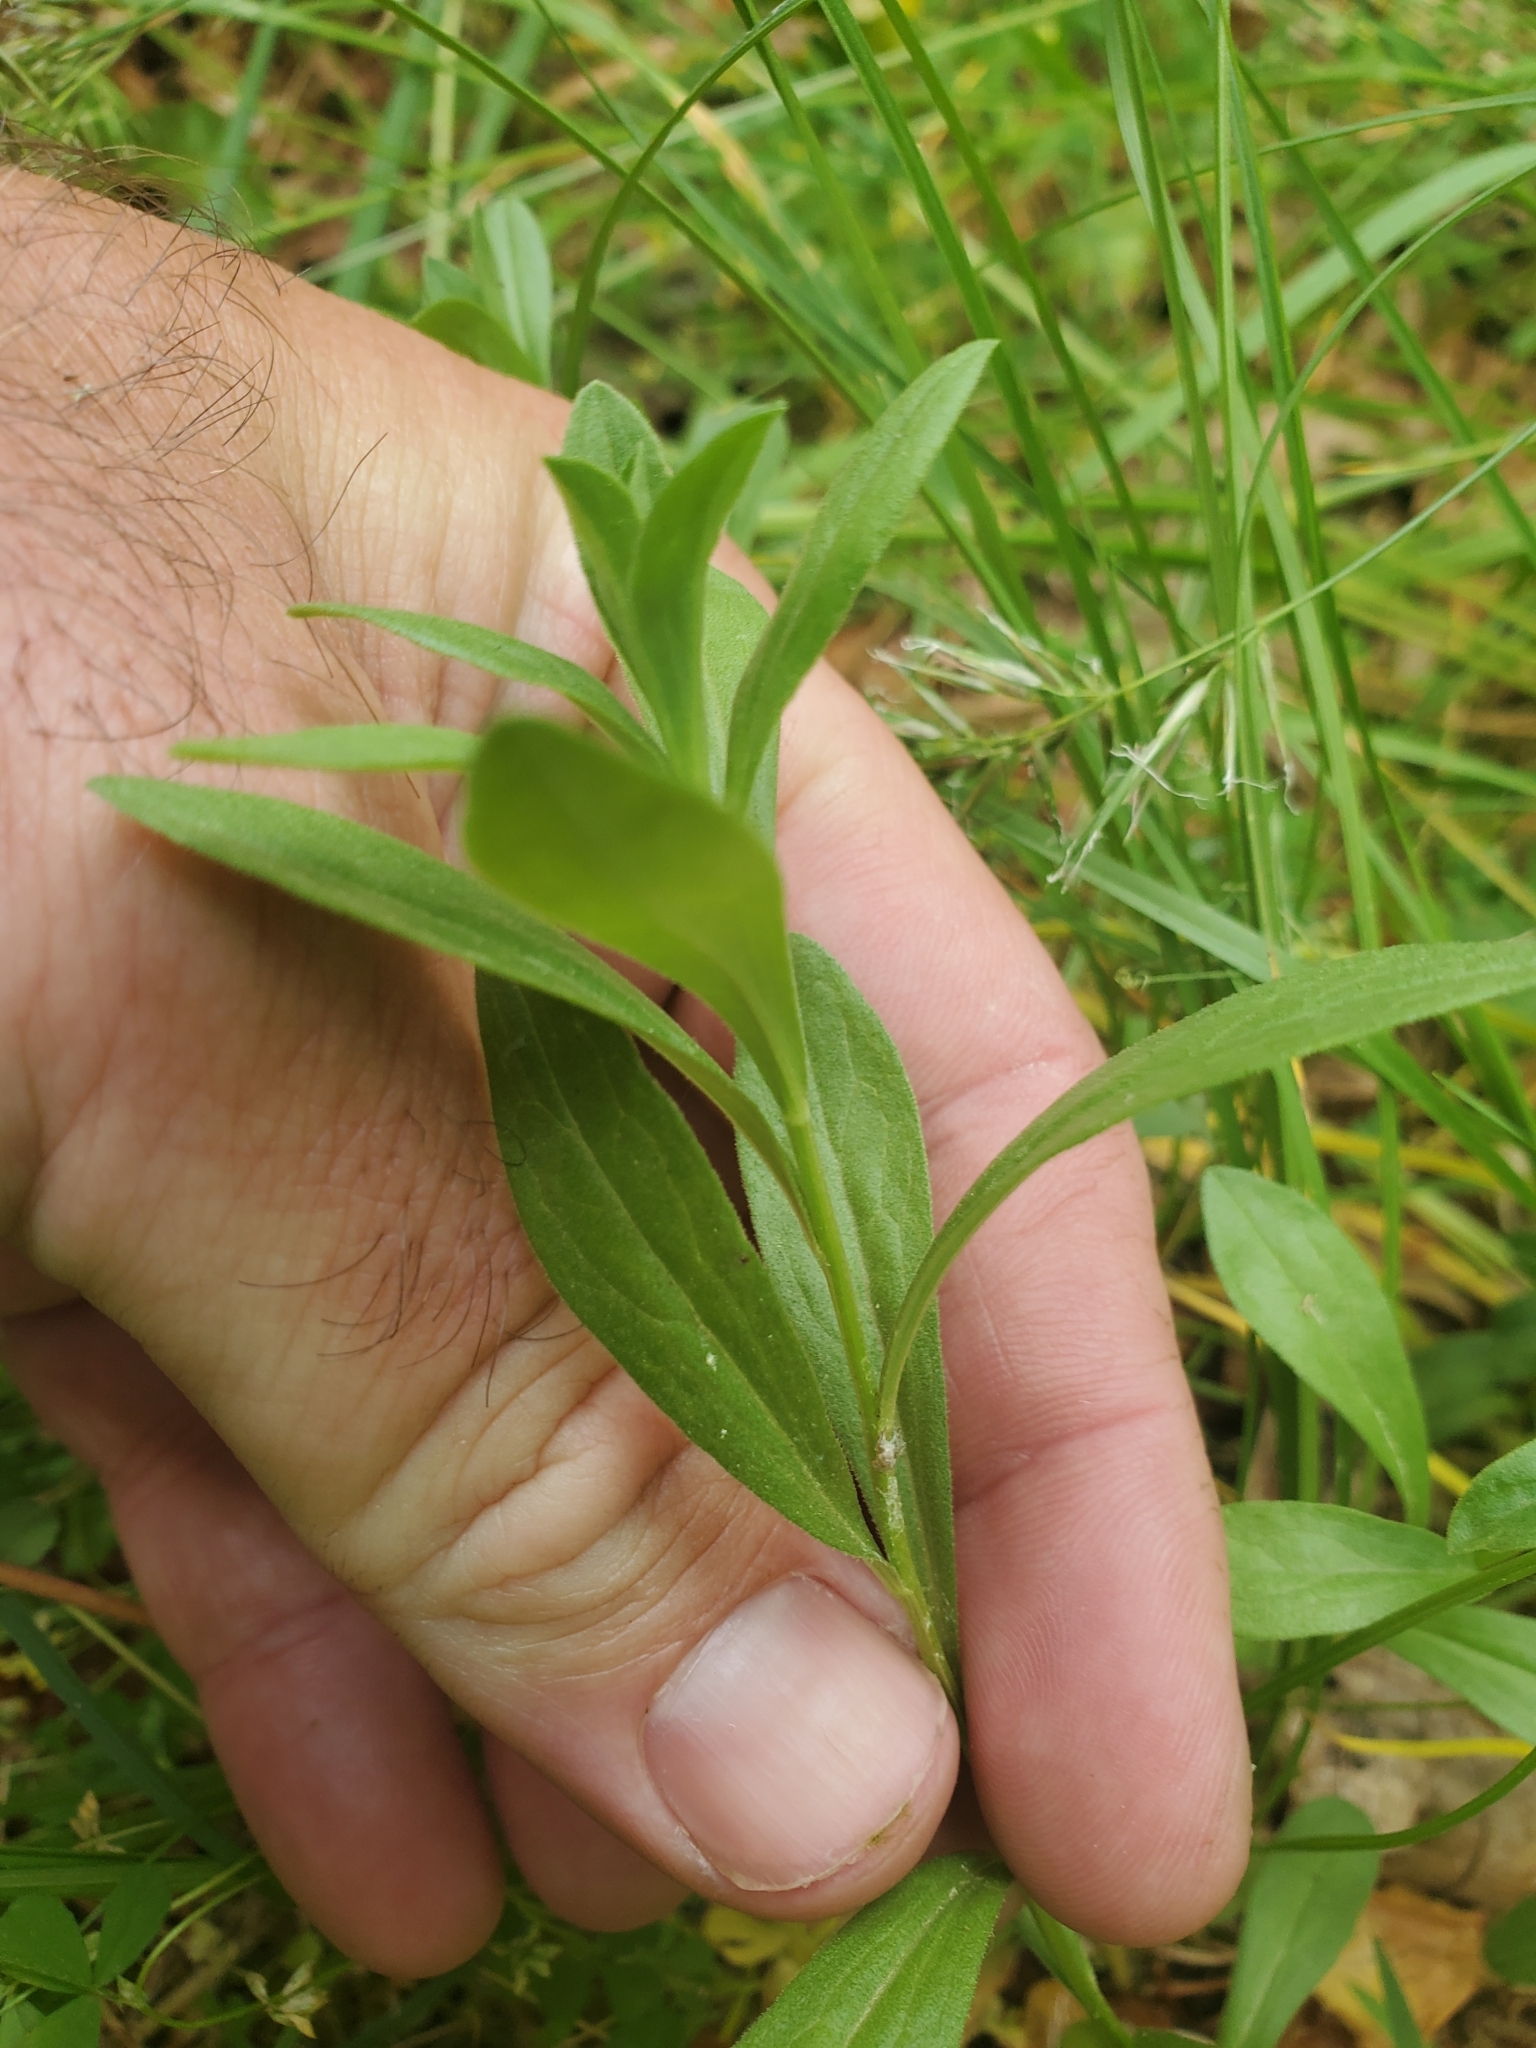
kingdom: Plantae
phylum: Tracheophyta
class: Magnoliopsida
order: Asterales
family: Asteraceae
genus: Sericocarpus
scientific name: Sericocarpus rigidus
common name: Columbia white-top aster
